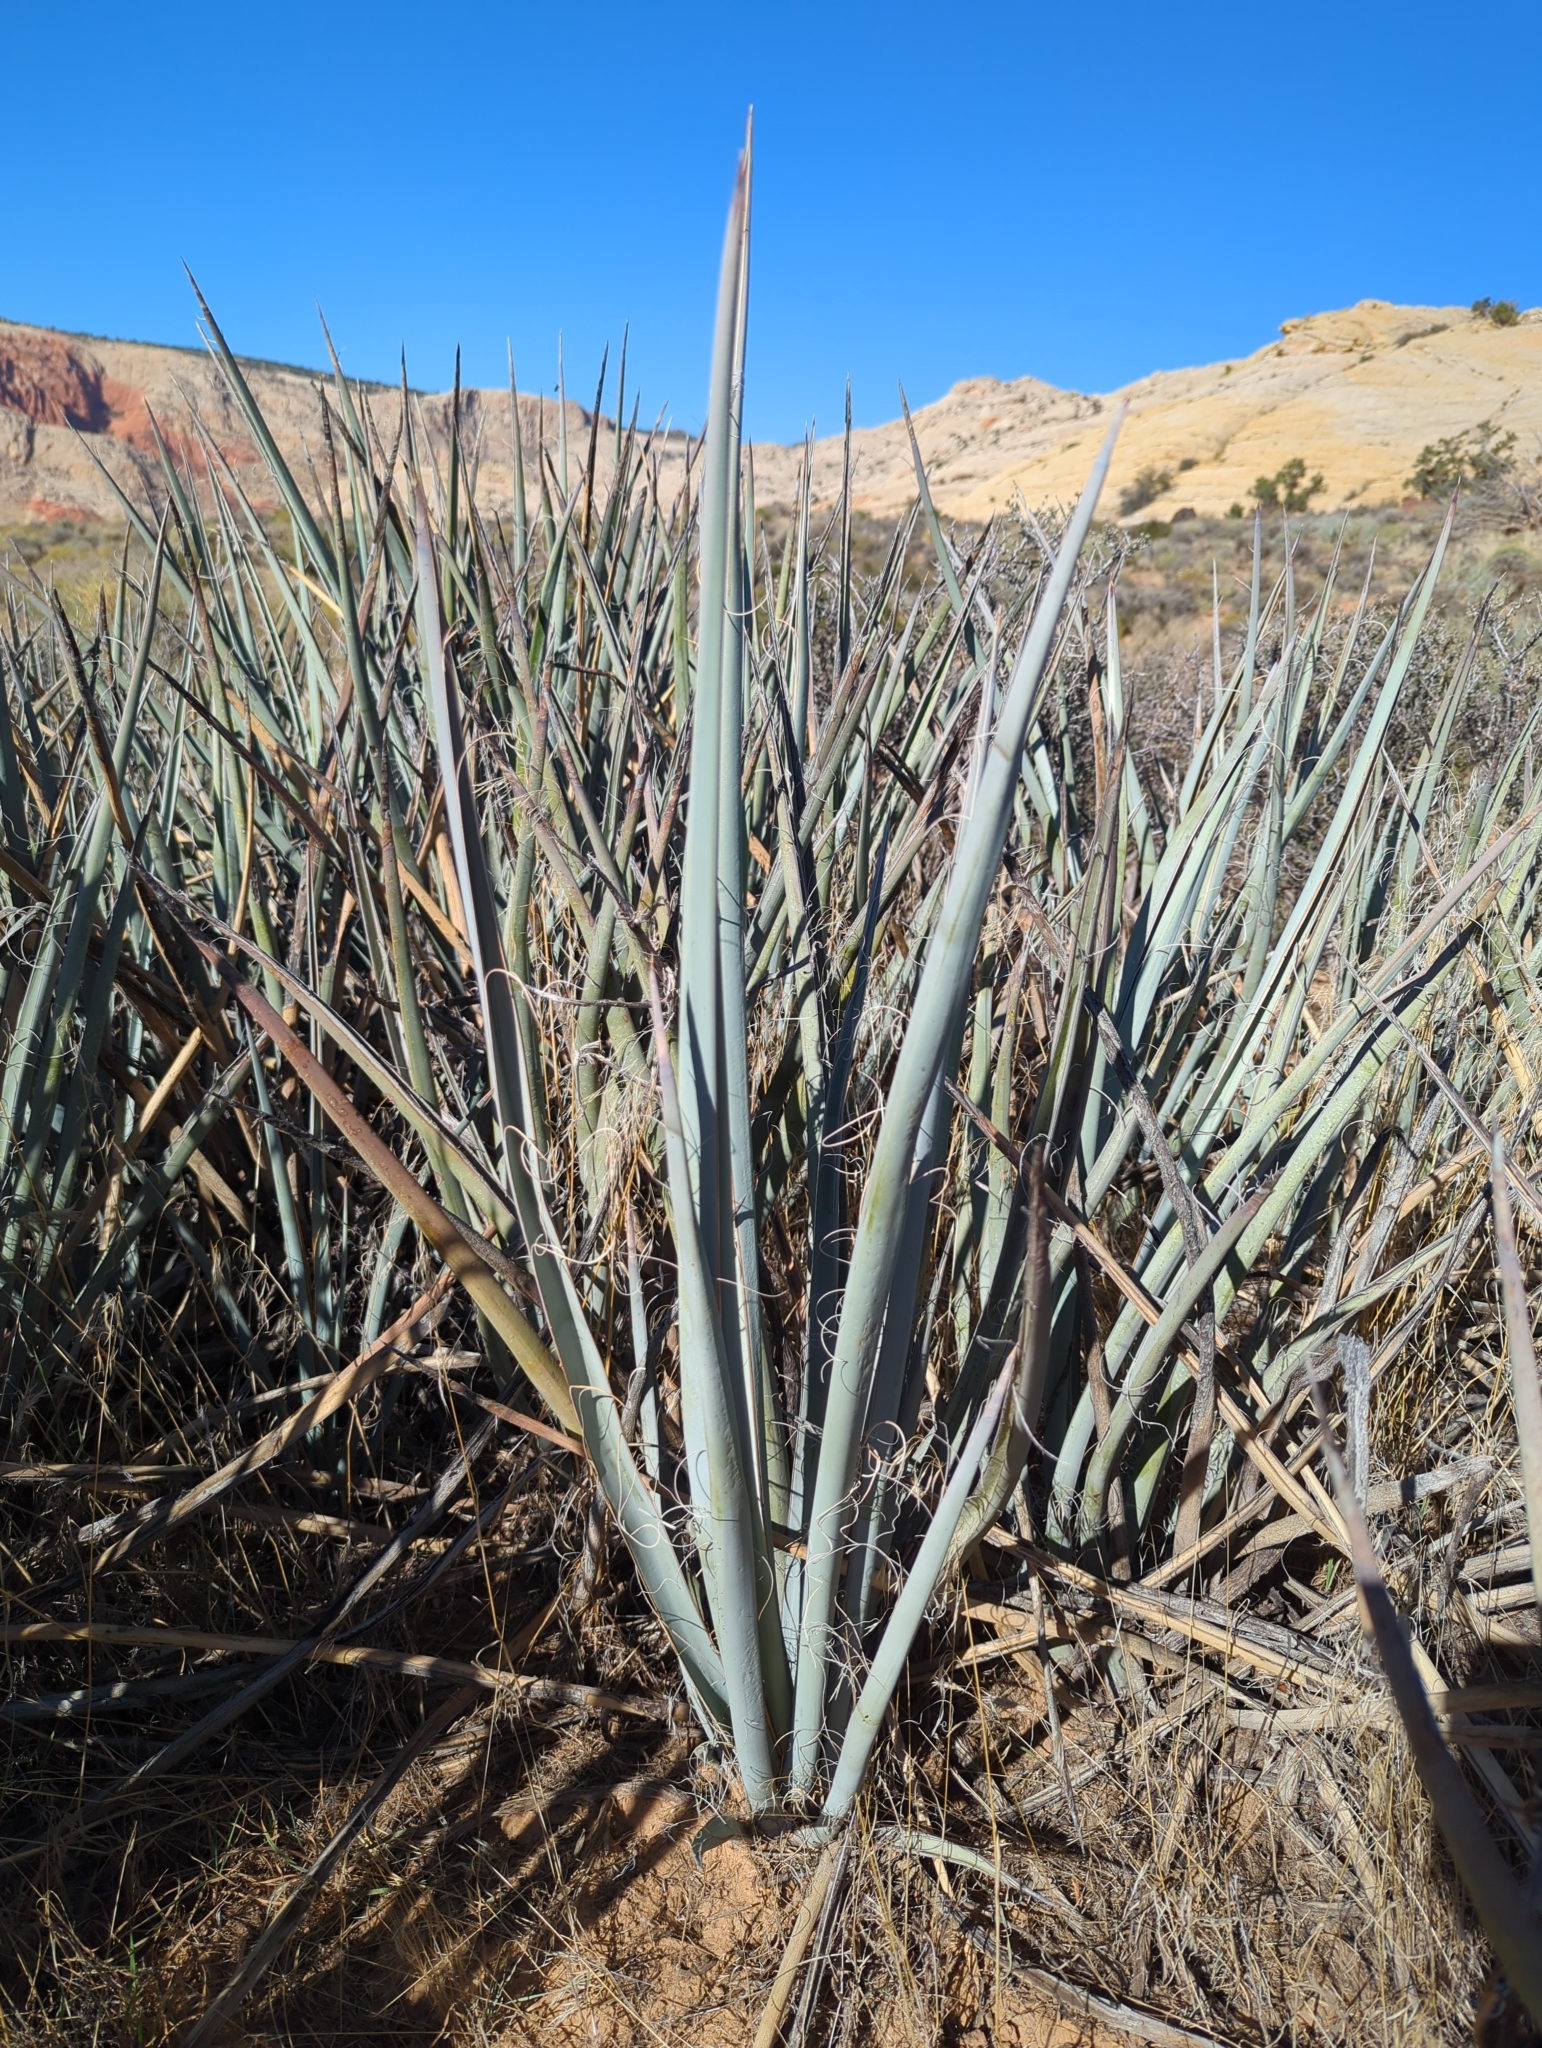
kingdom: Plantae
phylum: Tracheophyta
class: Liliopsida
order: Asparagales
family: Asparagaceae
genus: Yucca
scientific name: Yucca baccata
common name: Banana yucca
